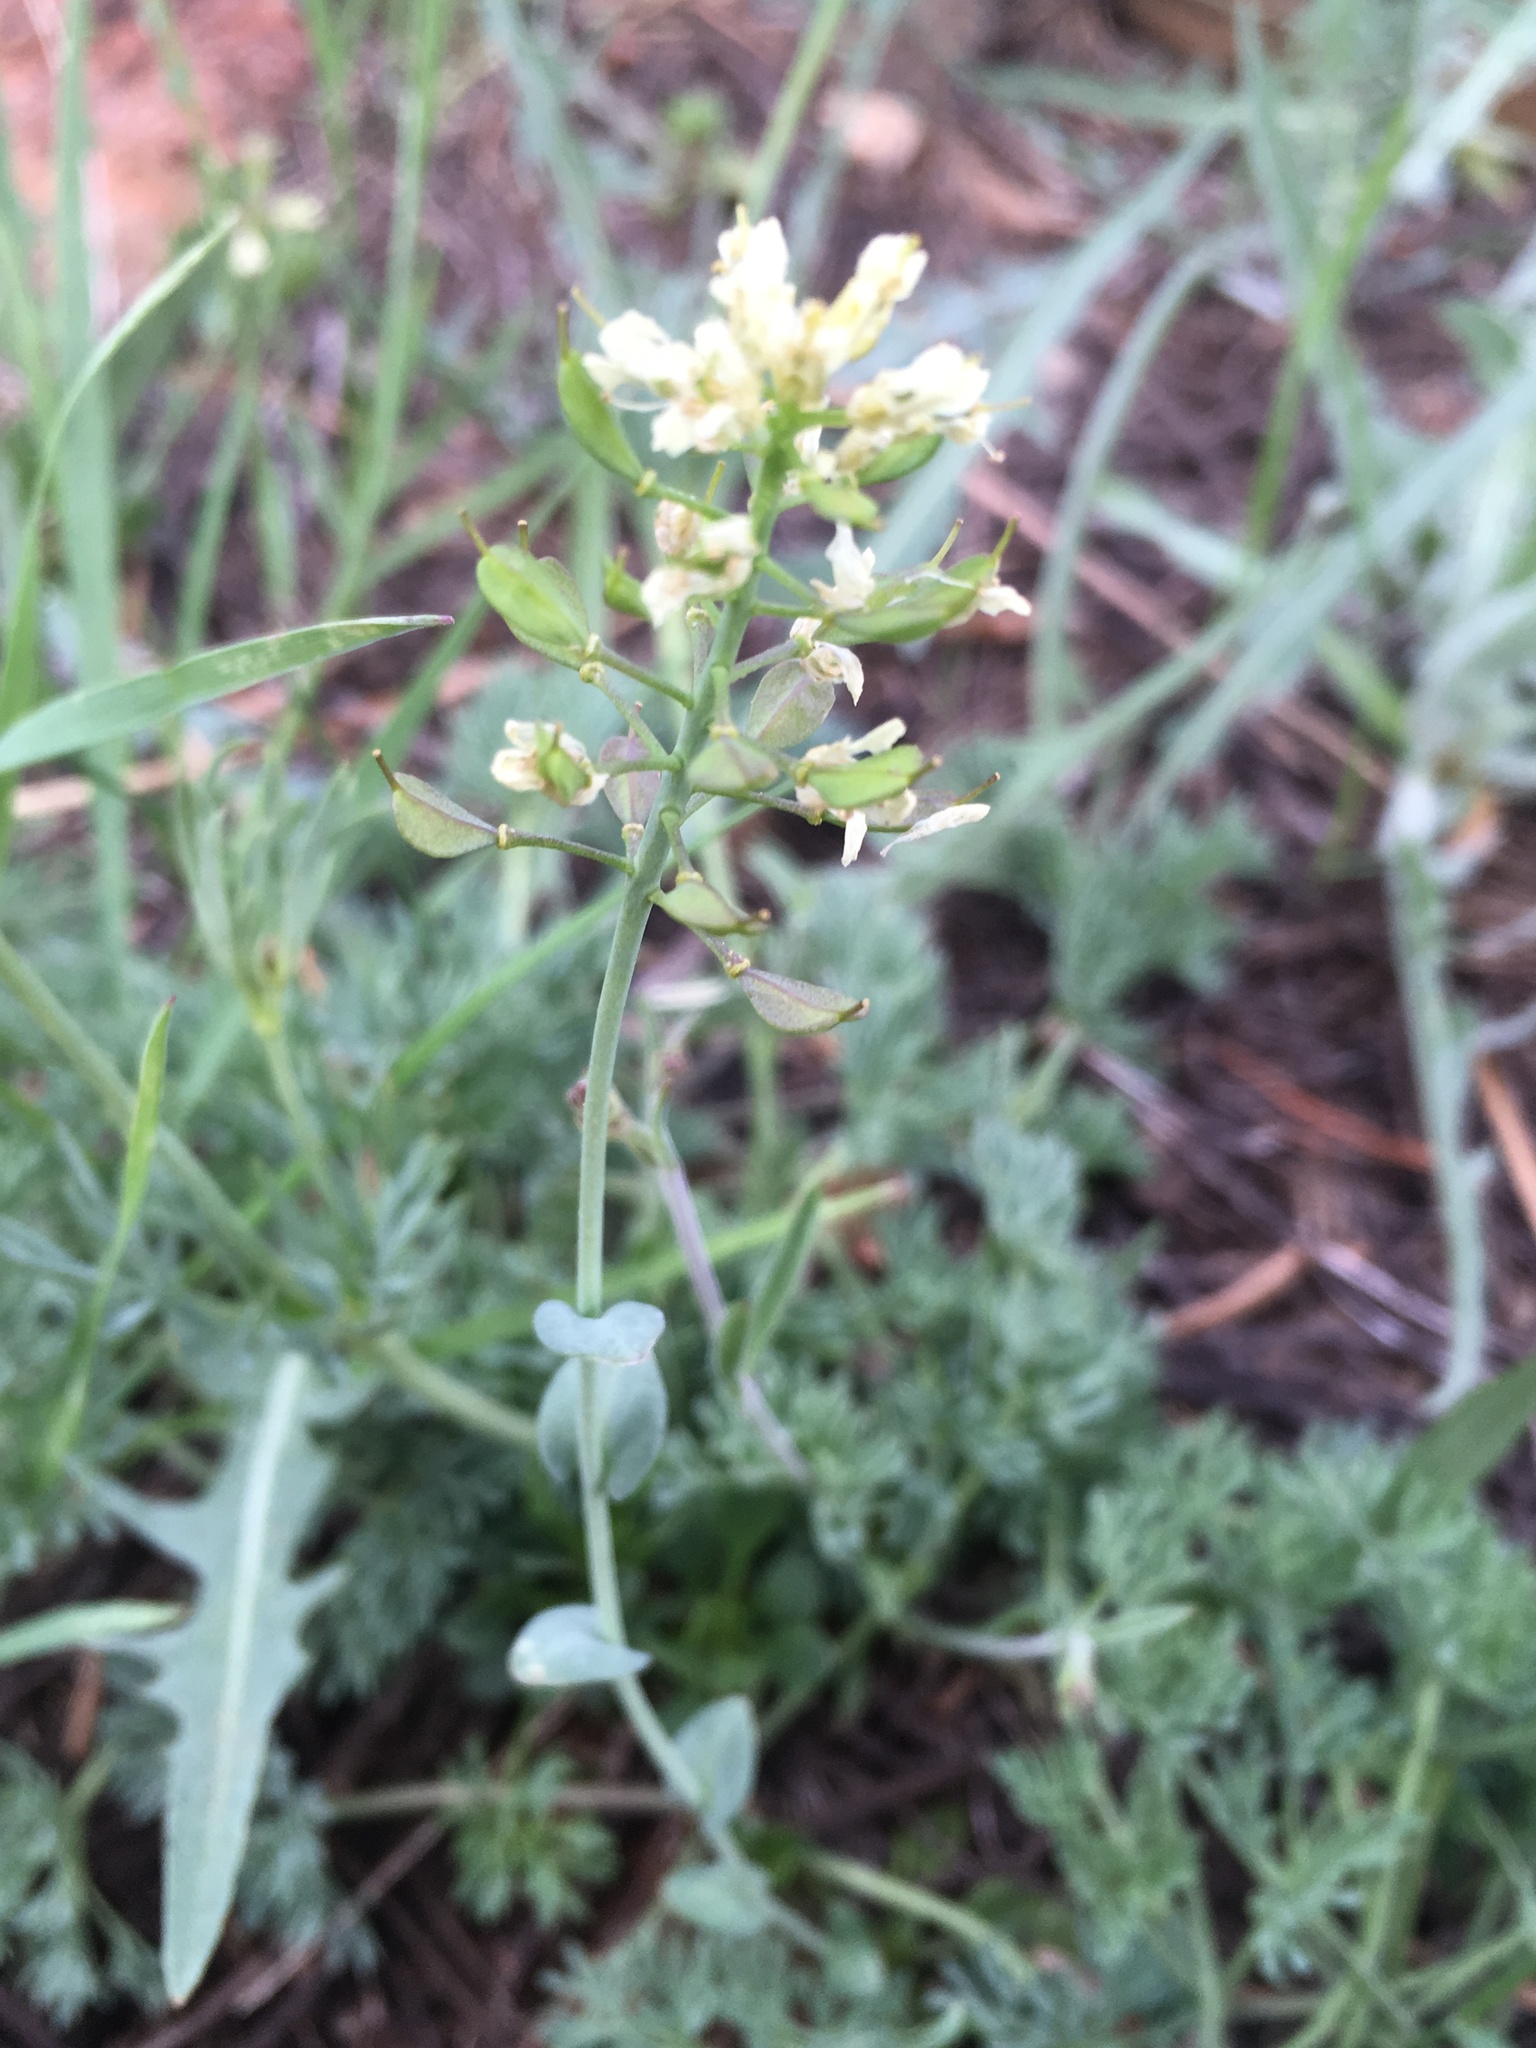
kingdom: Plantae
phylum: Tracheophyta
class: Magnoliopsida
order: Brassicales
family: Brassicaceae
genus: Noccaea
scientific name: Noccaea fendleri
